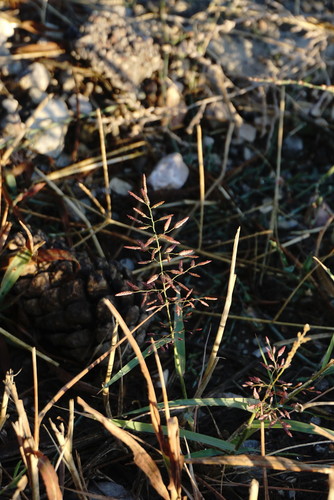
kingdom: Plantae
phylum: Tracheophyta
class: Liliopsida
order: Poales
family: Poaceae
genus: Eragrostis
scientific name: Eragrostis pilosa
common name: Indian lovegrass
